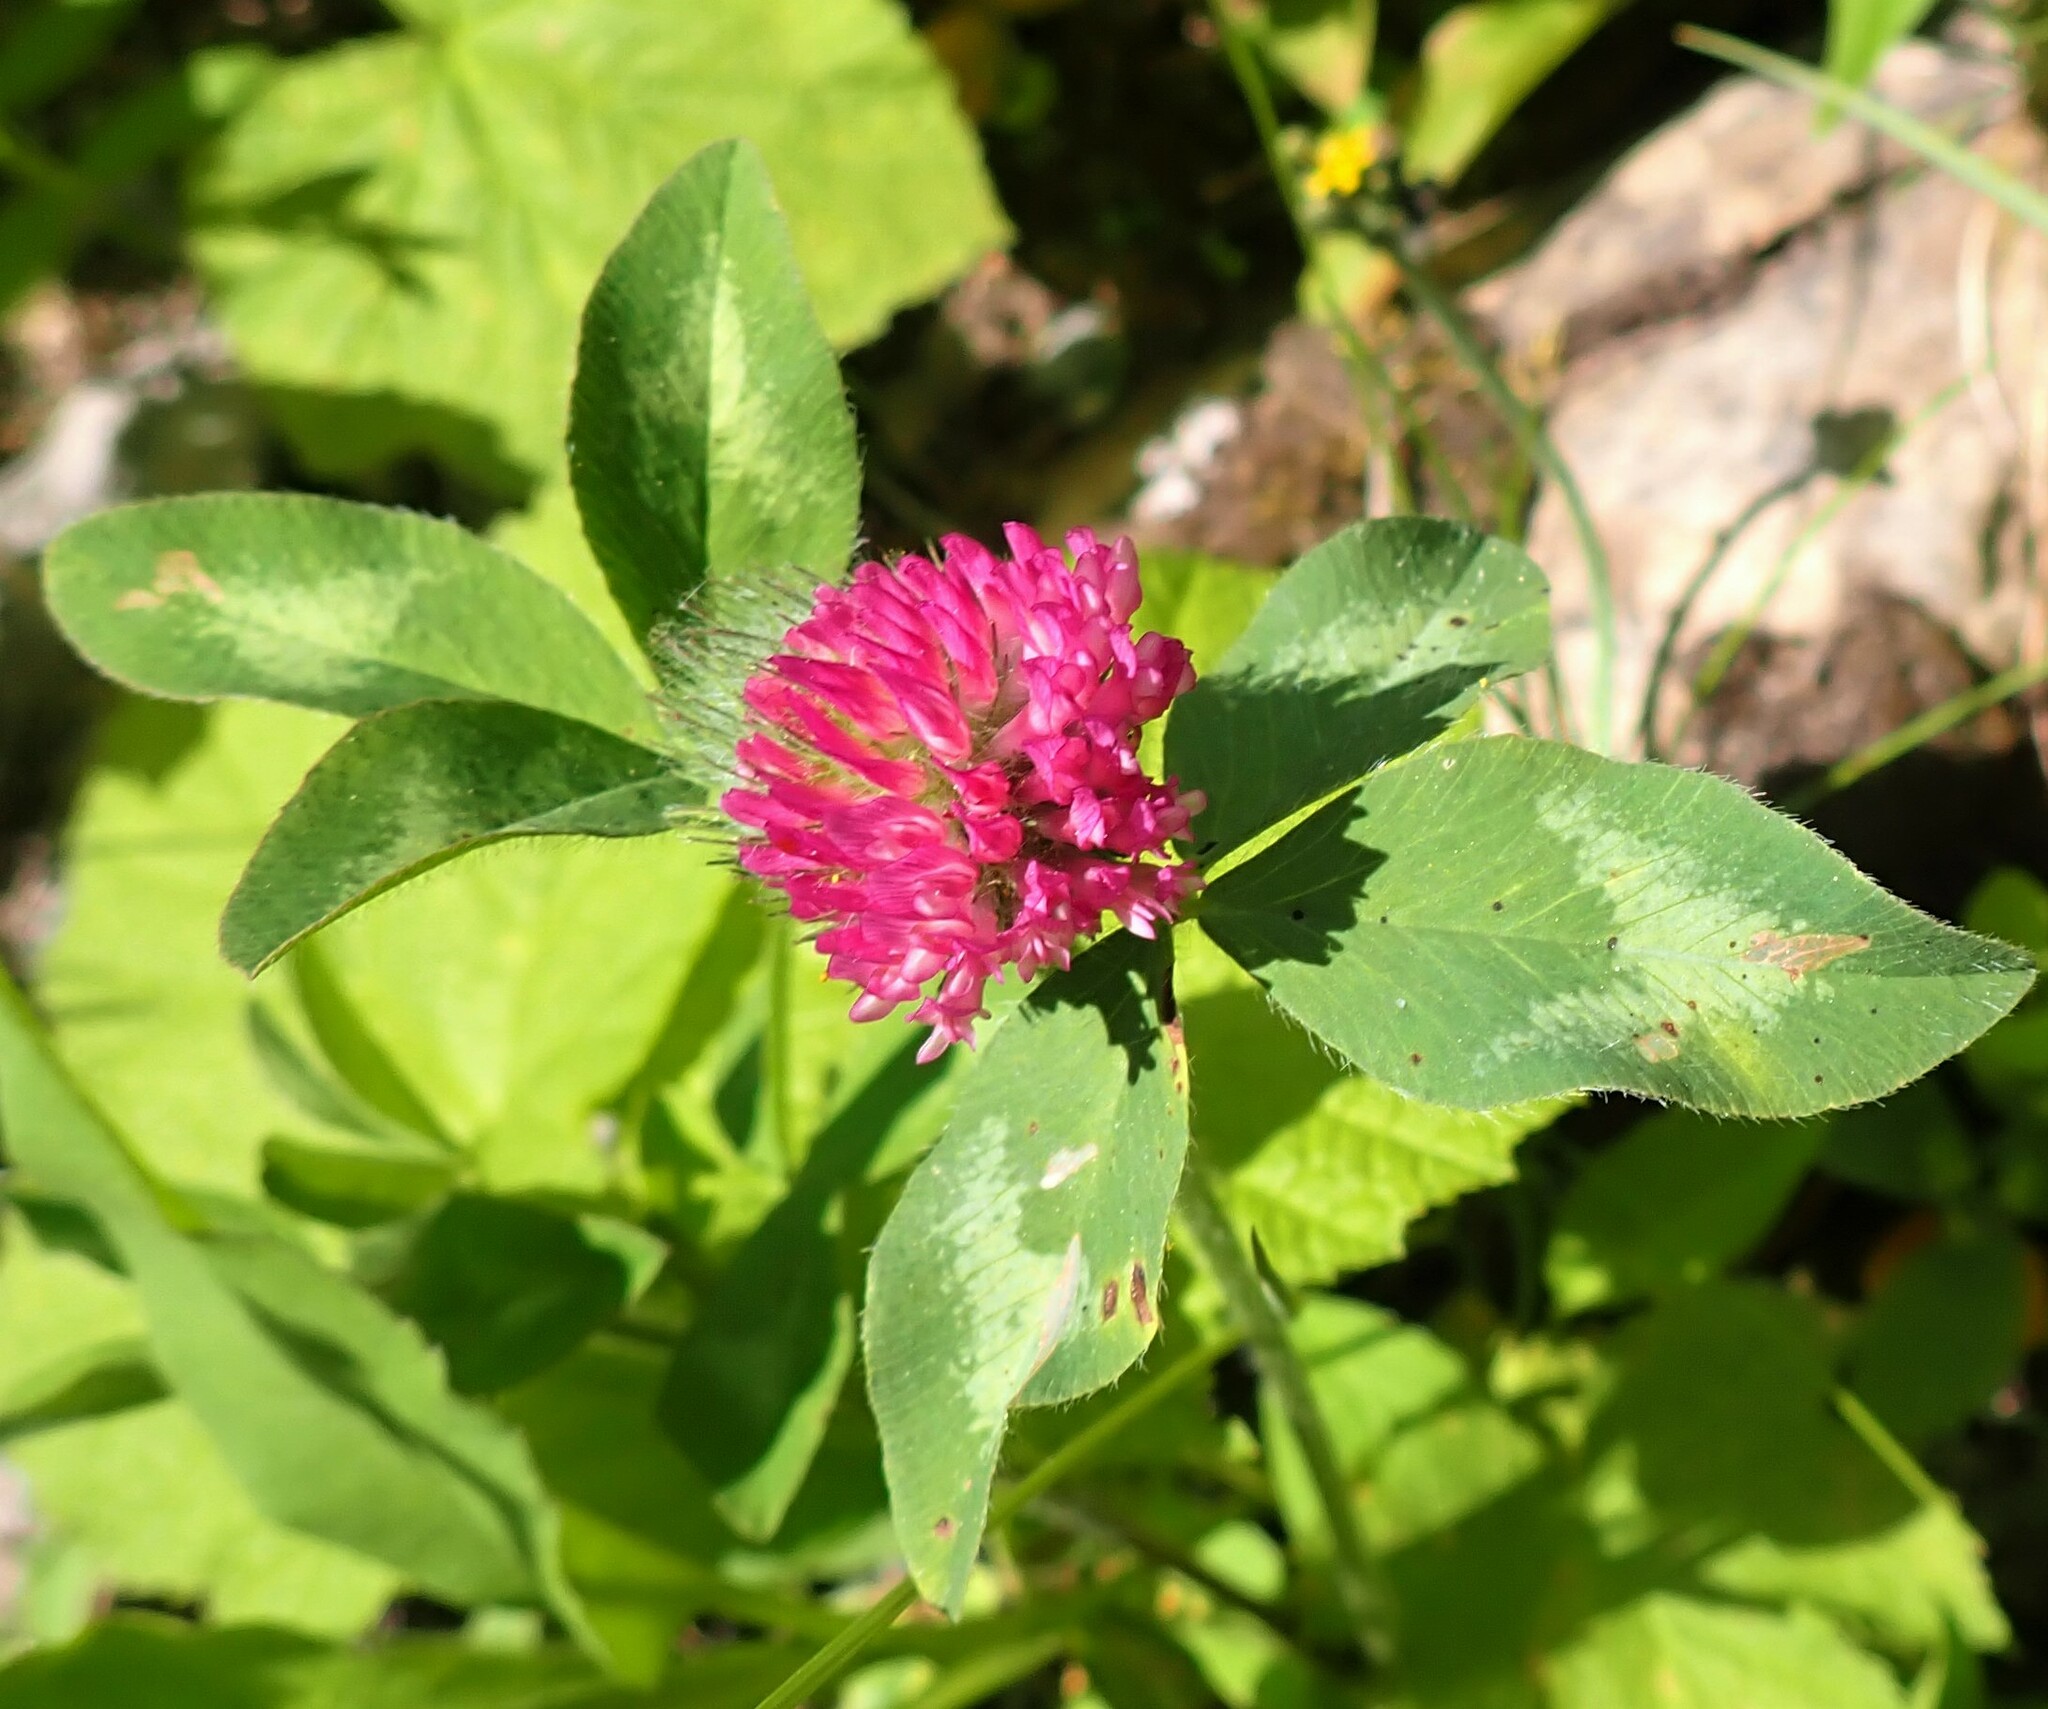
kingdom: Plantae
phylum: Tracheophyta
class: Magnoliopsida
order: Fabales
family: Fabaceae
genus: Trifolium
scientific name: Trifolium pratense
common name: Red clover
